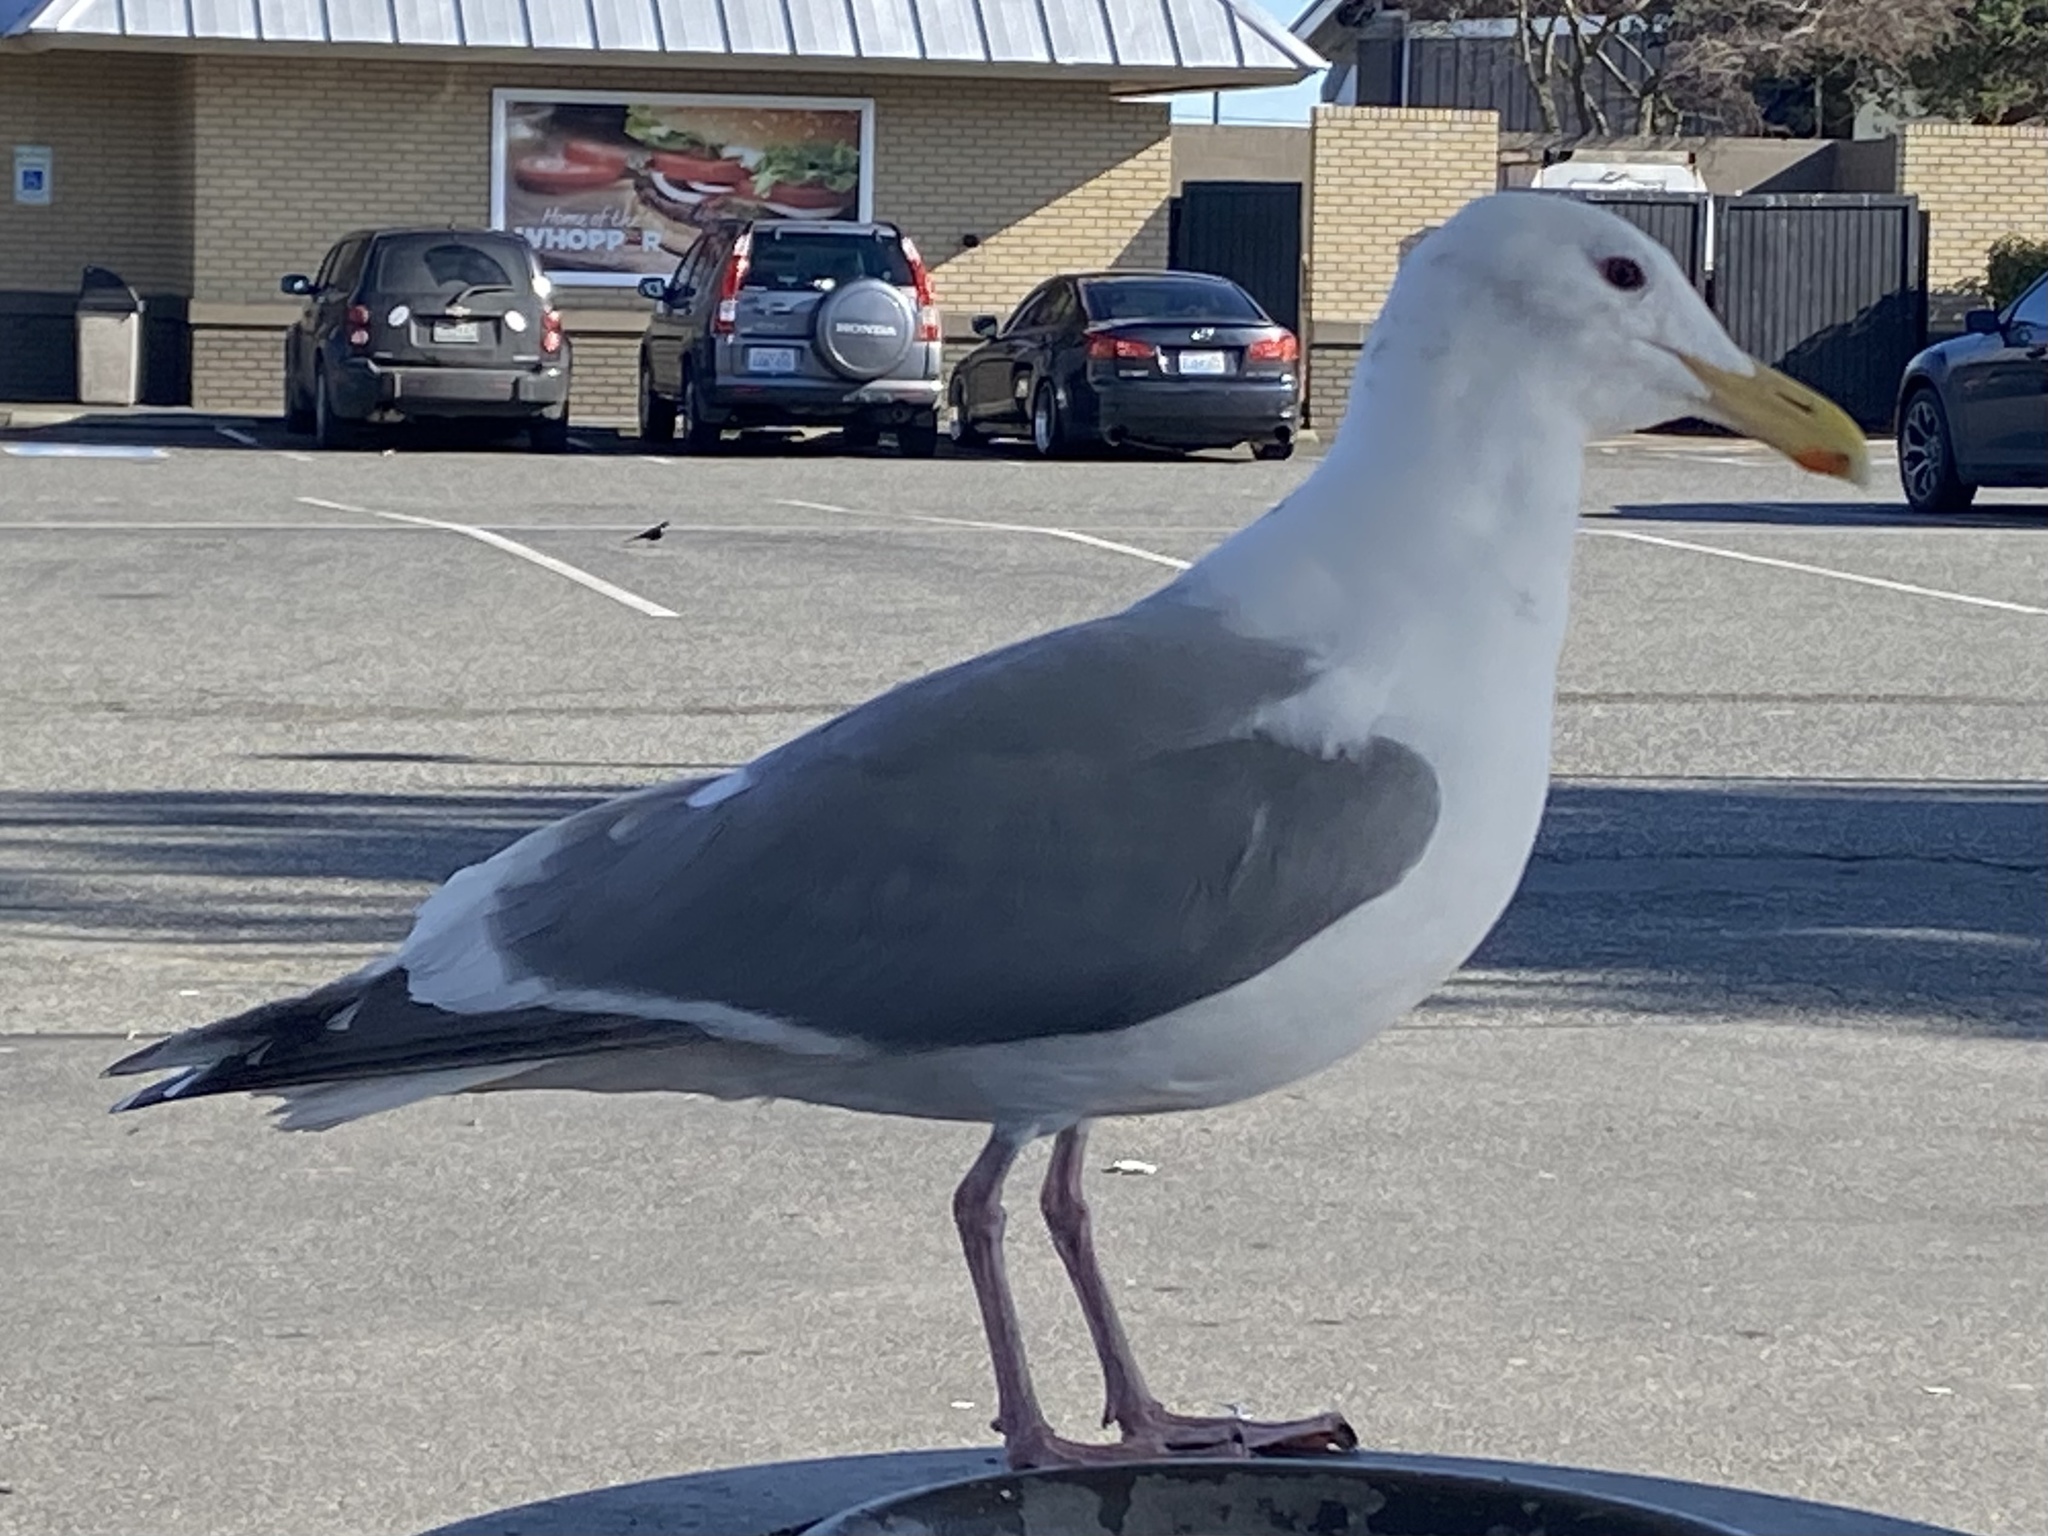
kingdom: Animalia
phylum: Chordata
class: Aves
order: Charadriiformes
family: Laridae
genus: Larus
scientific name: Larus
